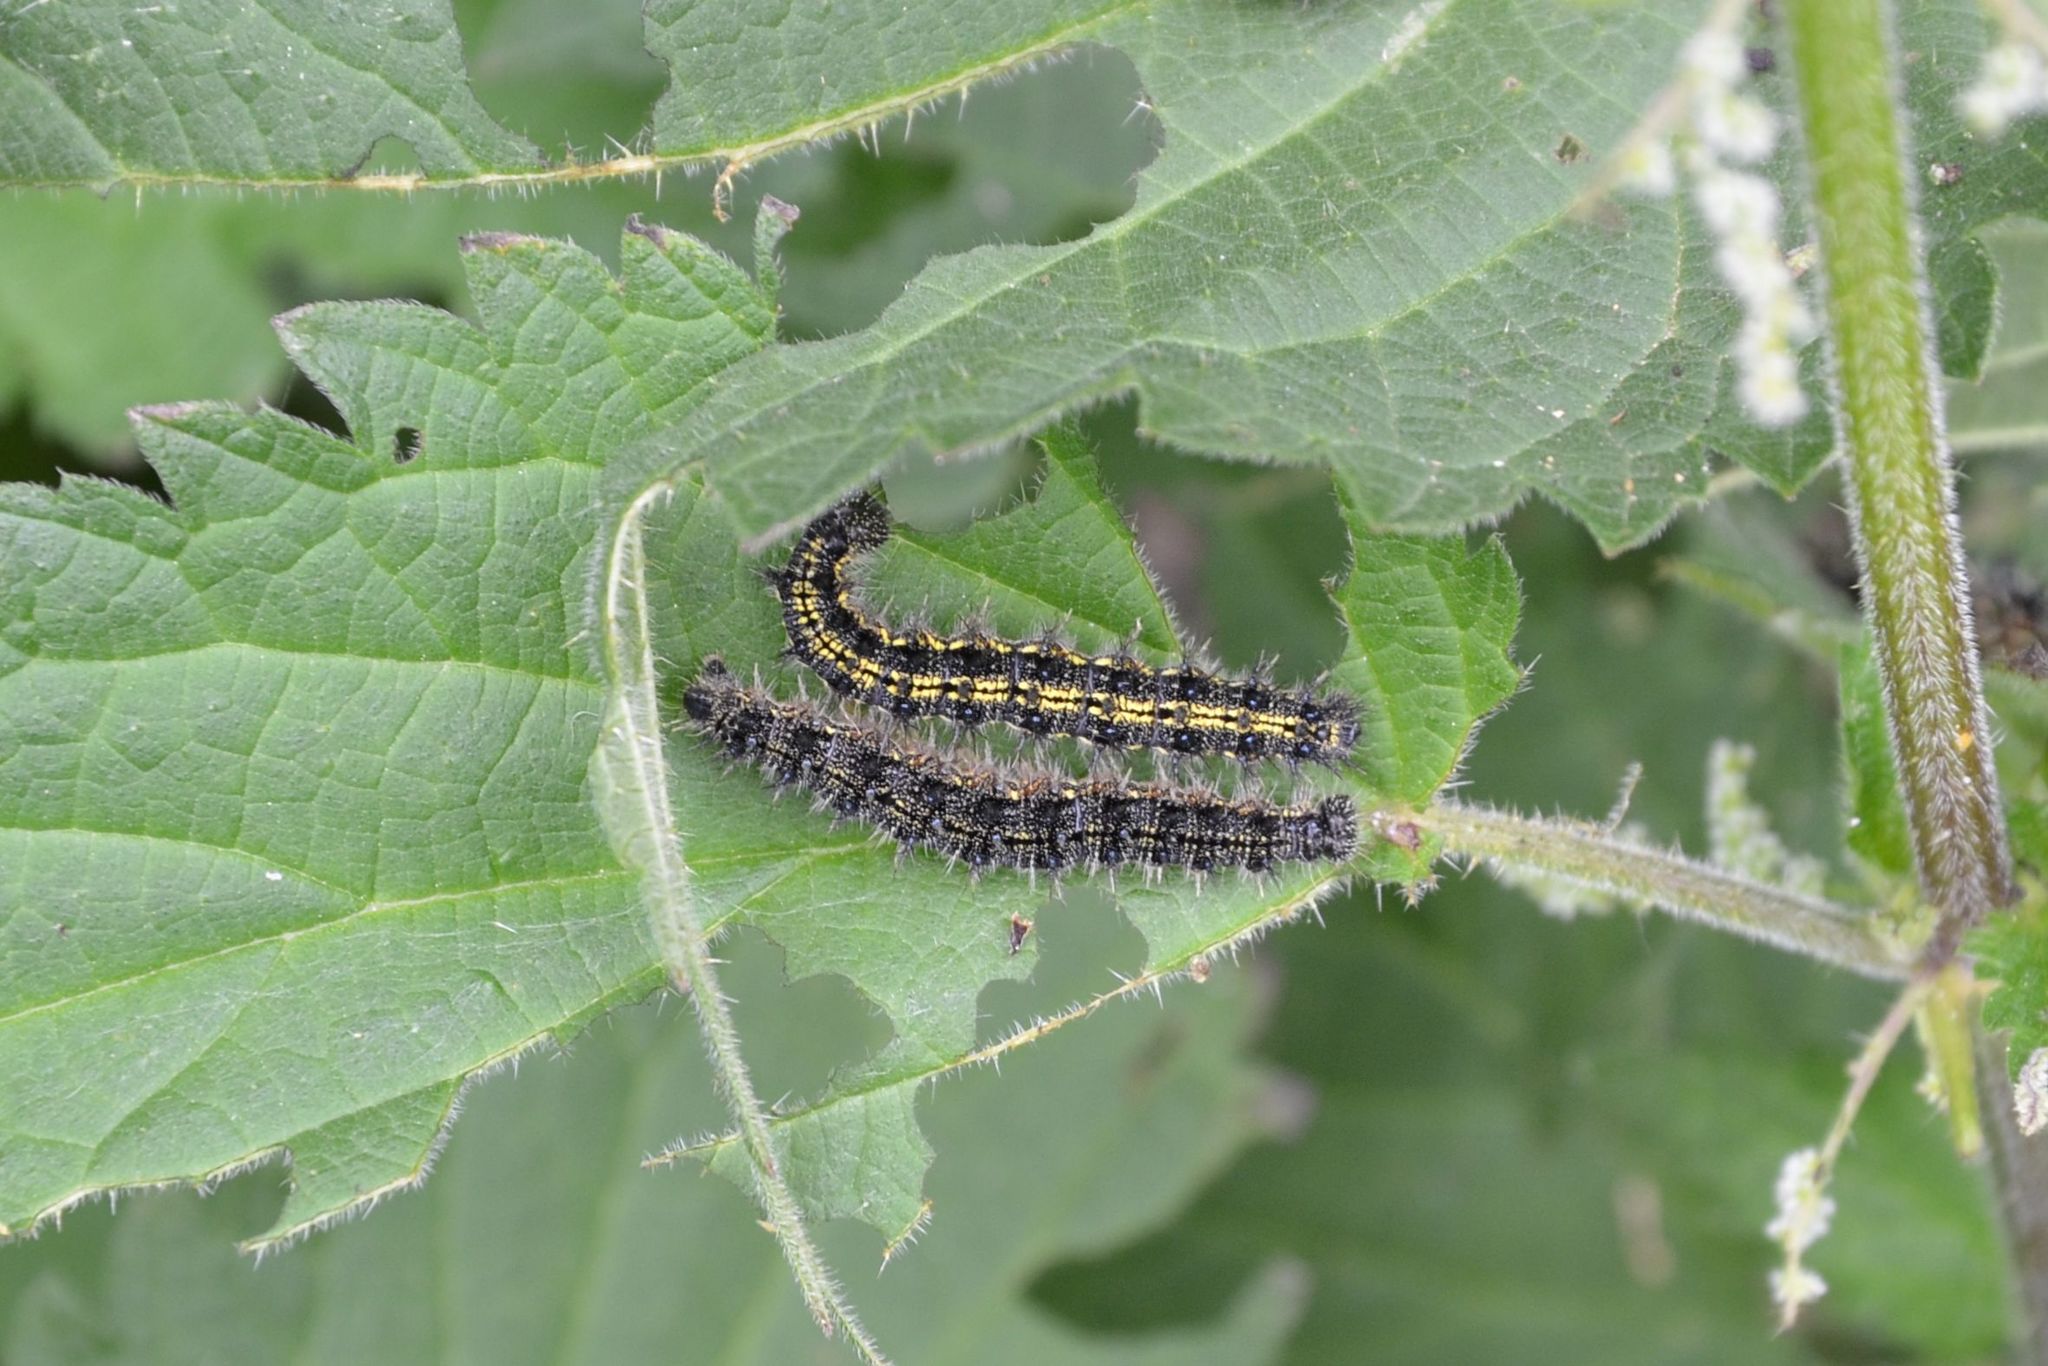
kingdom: Animalia
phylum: Arthropoda
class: Insecta
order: Lepidoptera
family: Nymphalidae
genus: Aglais
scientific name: Aglais urticae
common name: Small tortoiseshell
